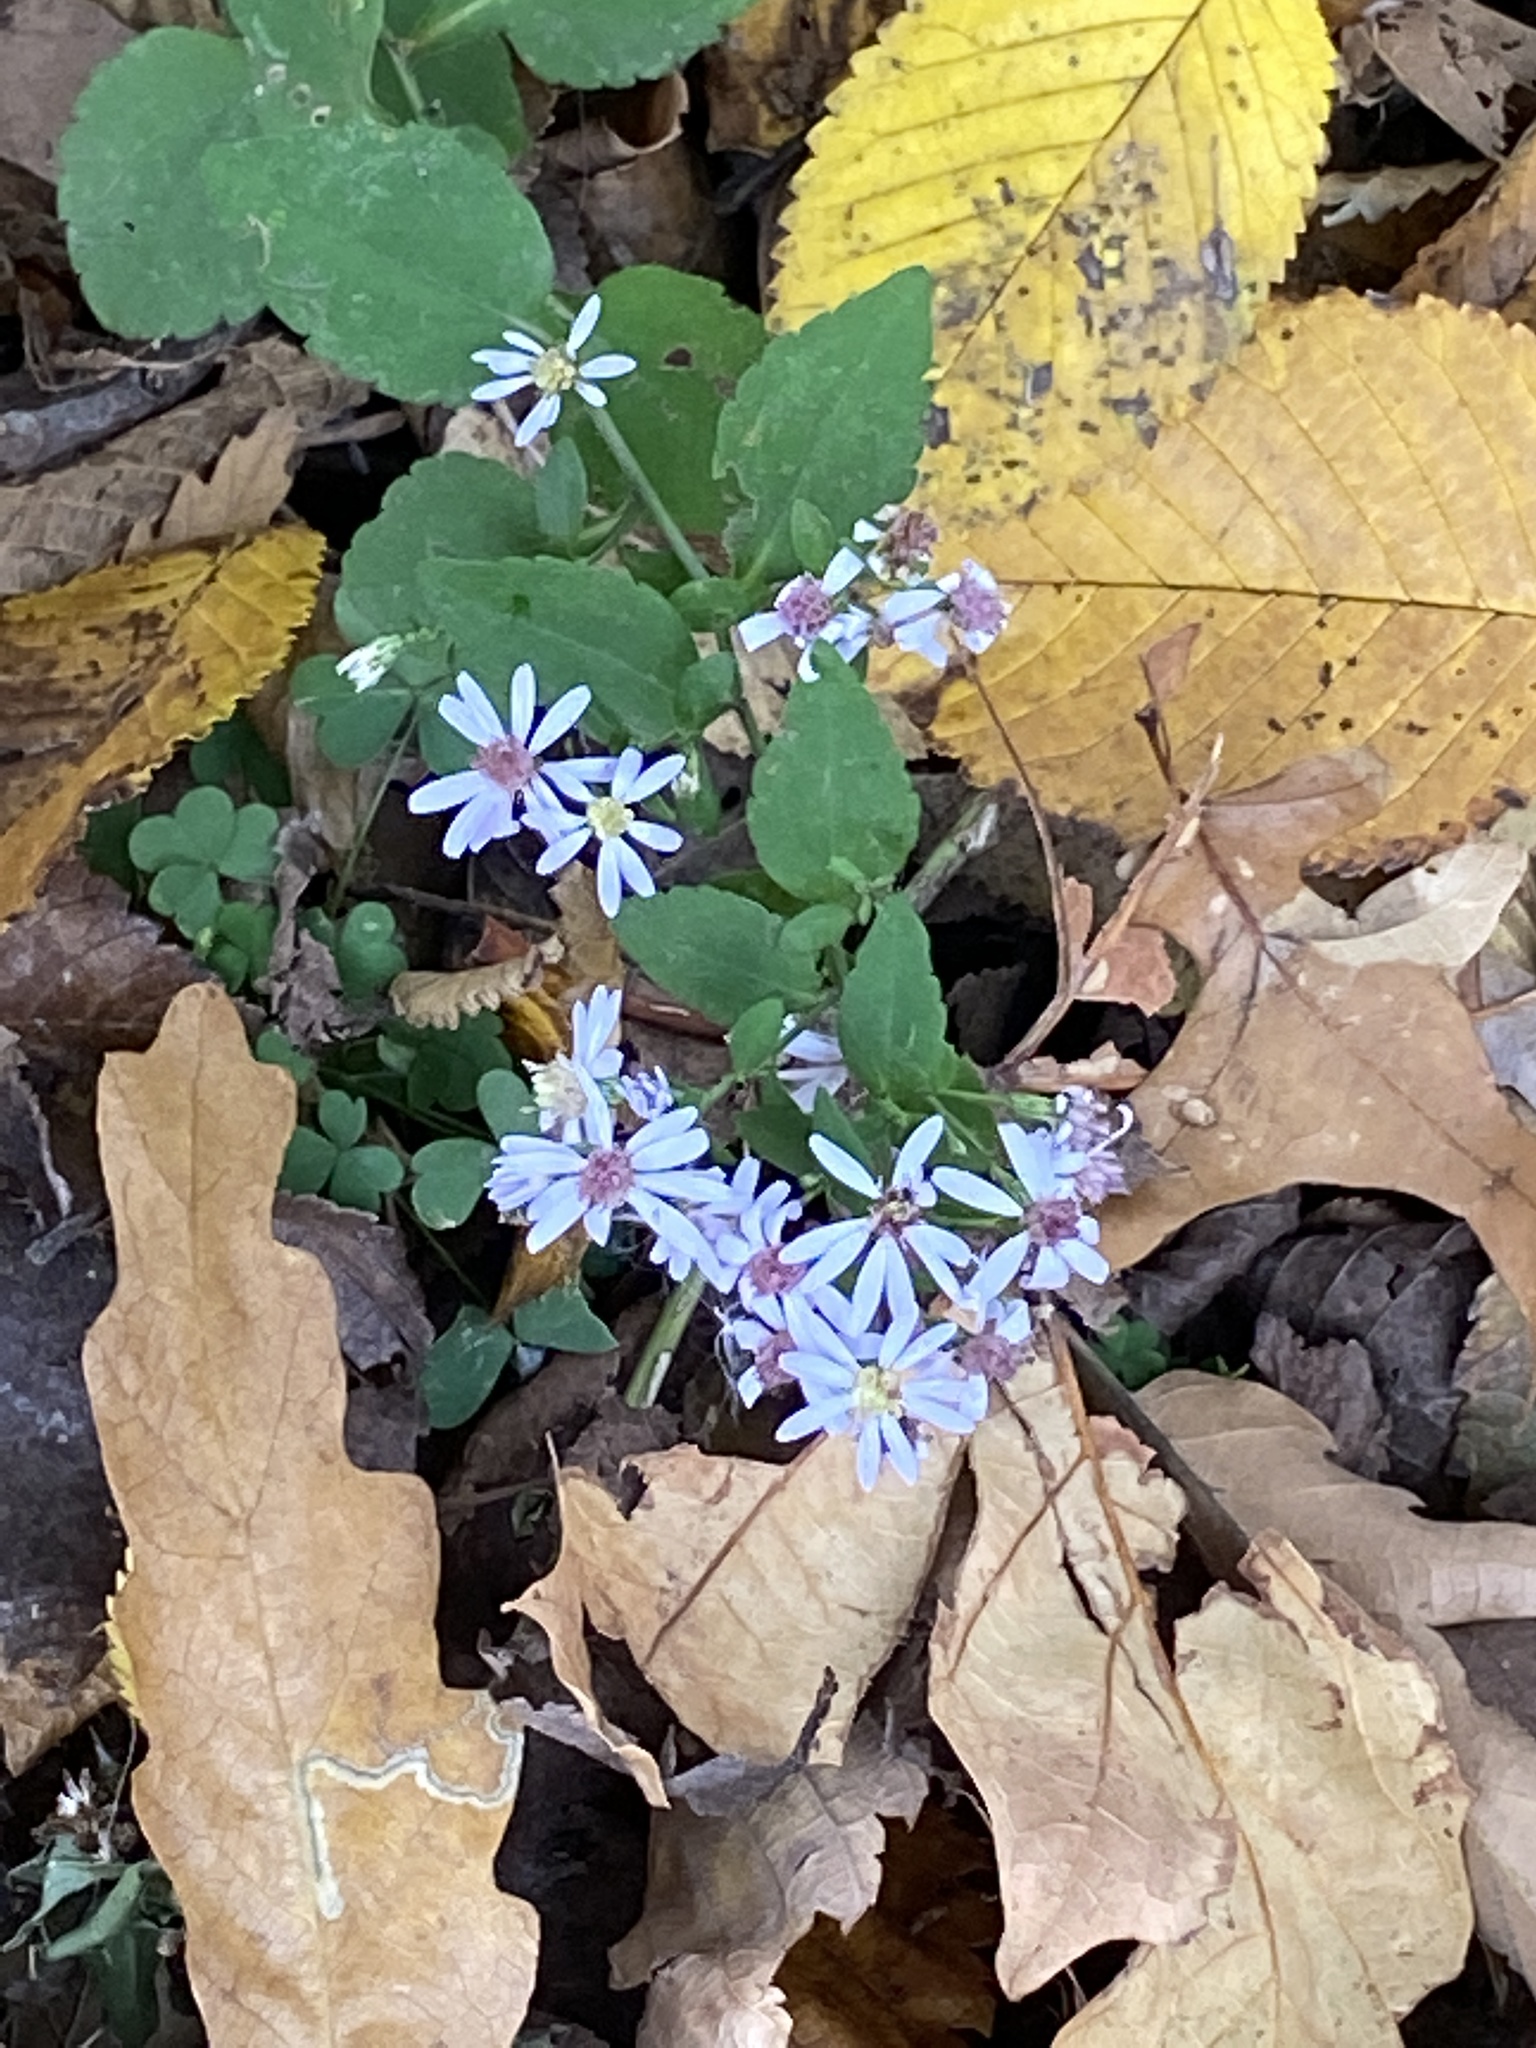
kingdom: Plantae
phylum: Tracheophyta
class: Magnoliopsida
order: Asterales
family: Asteraceae
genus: Symphyotrichum
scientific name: Symphyotrichum cordifolium
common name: Beeweed
